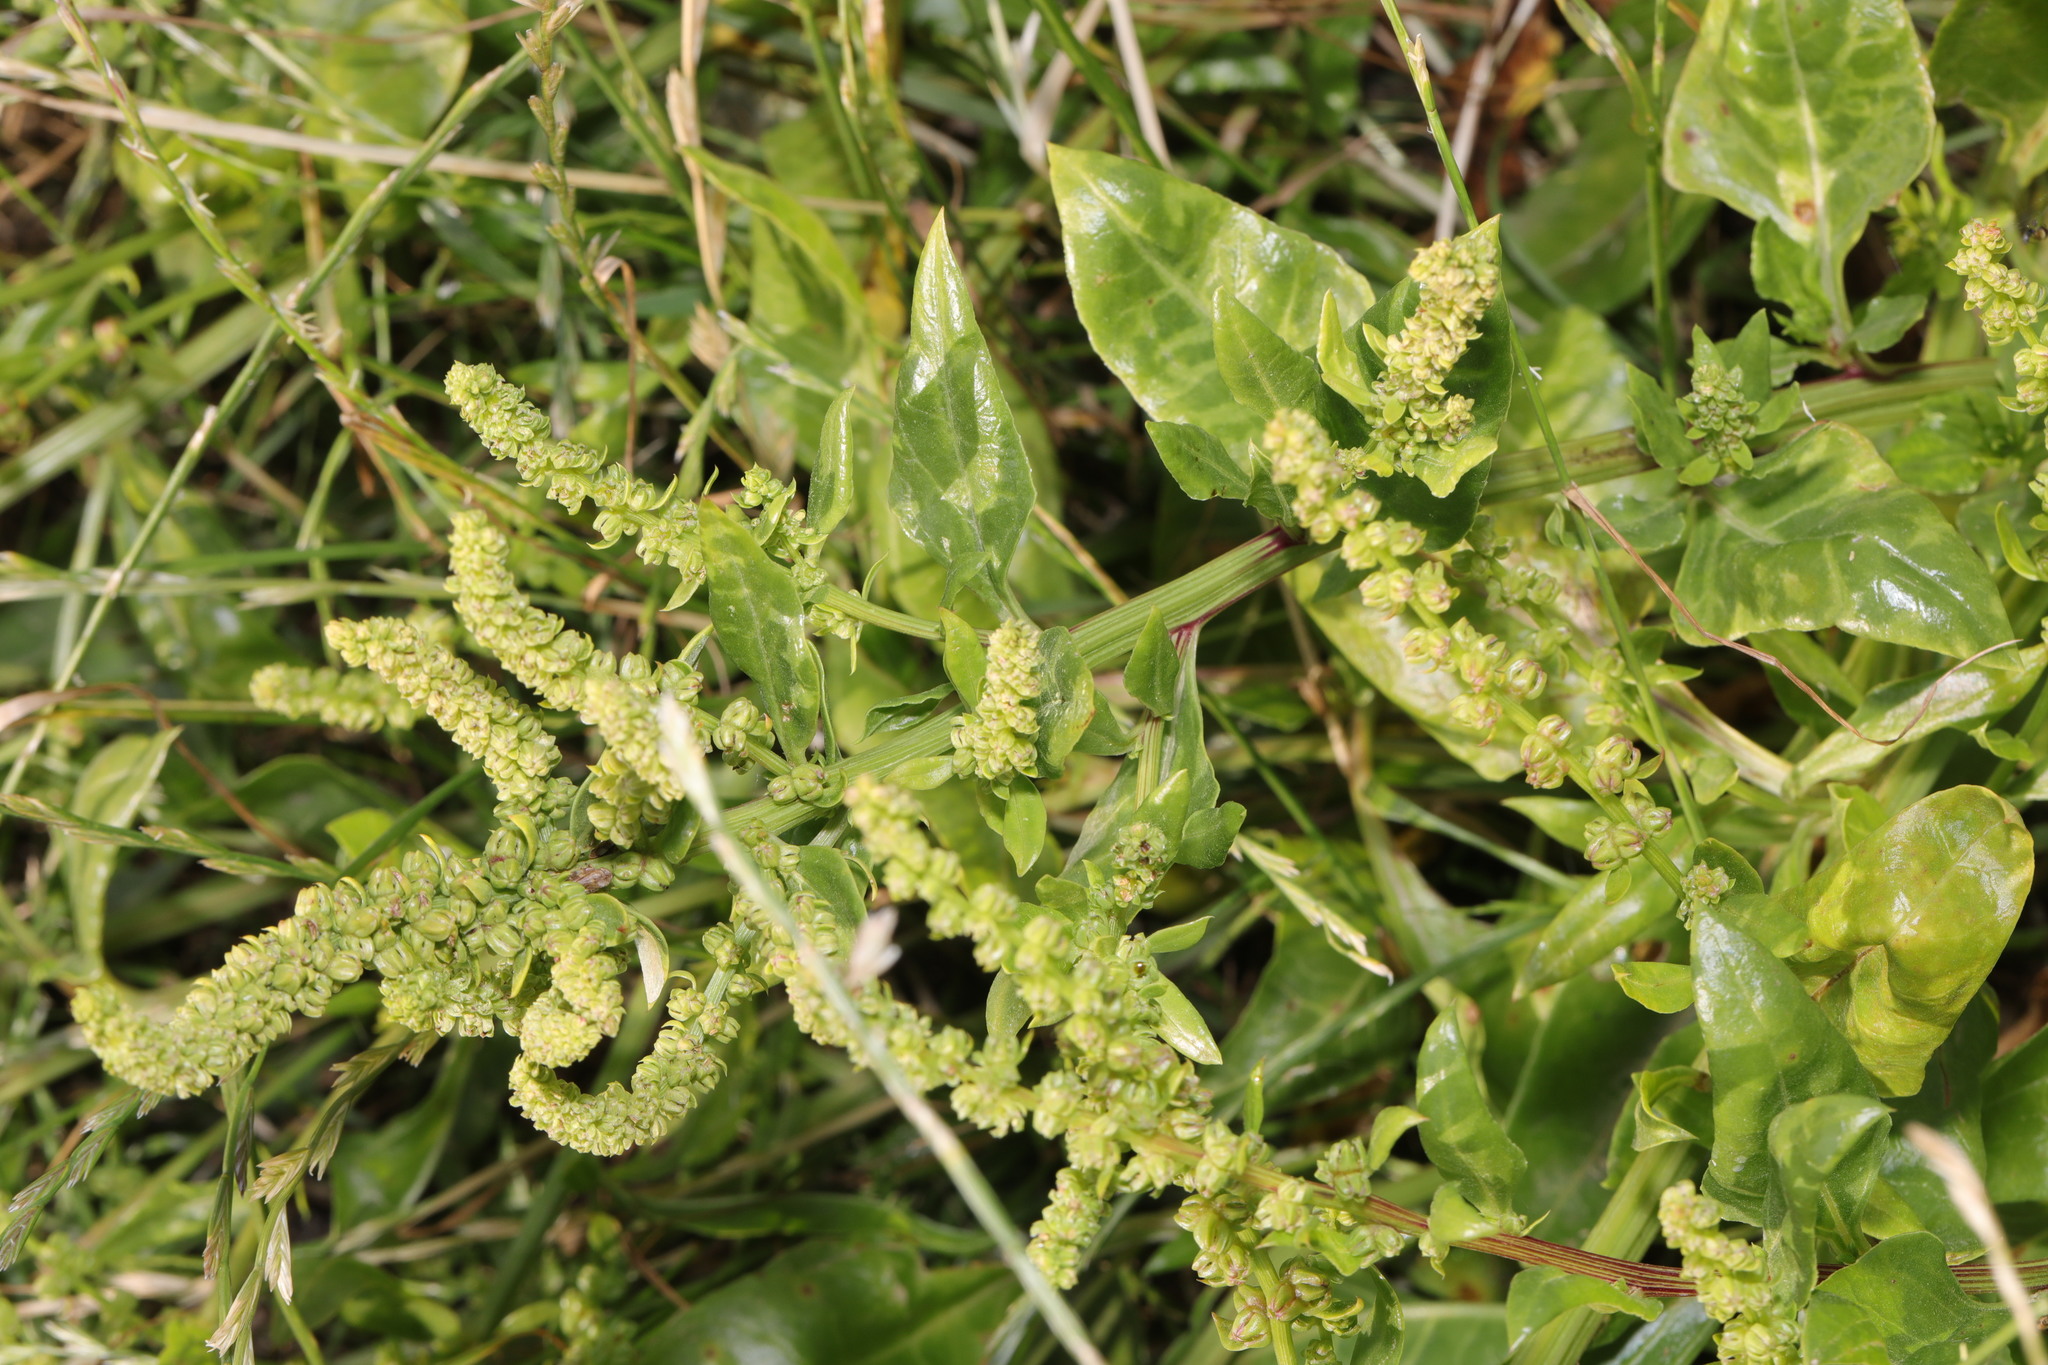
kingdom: Plantae
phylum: Tracheophyta
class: Magnoliopsida
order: Caryophyllales
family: Amaranthaceae
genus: Beta
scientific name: Beta vulgaris
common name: Beet
